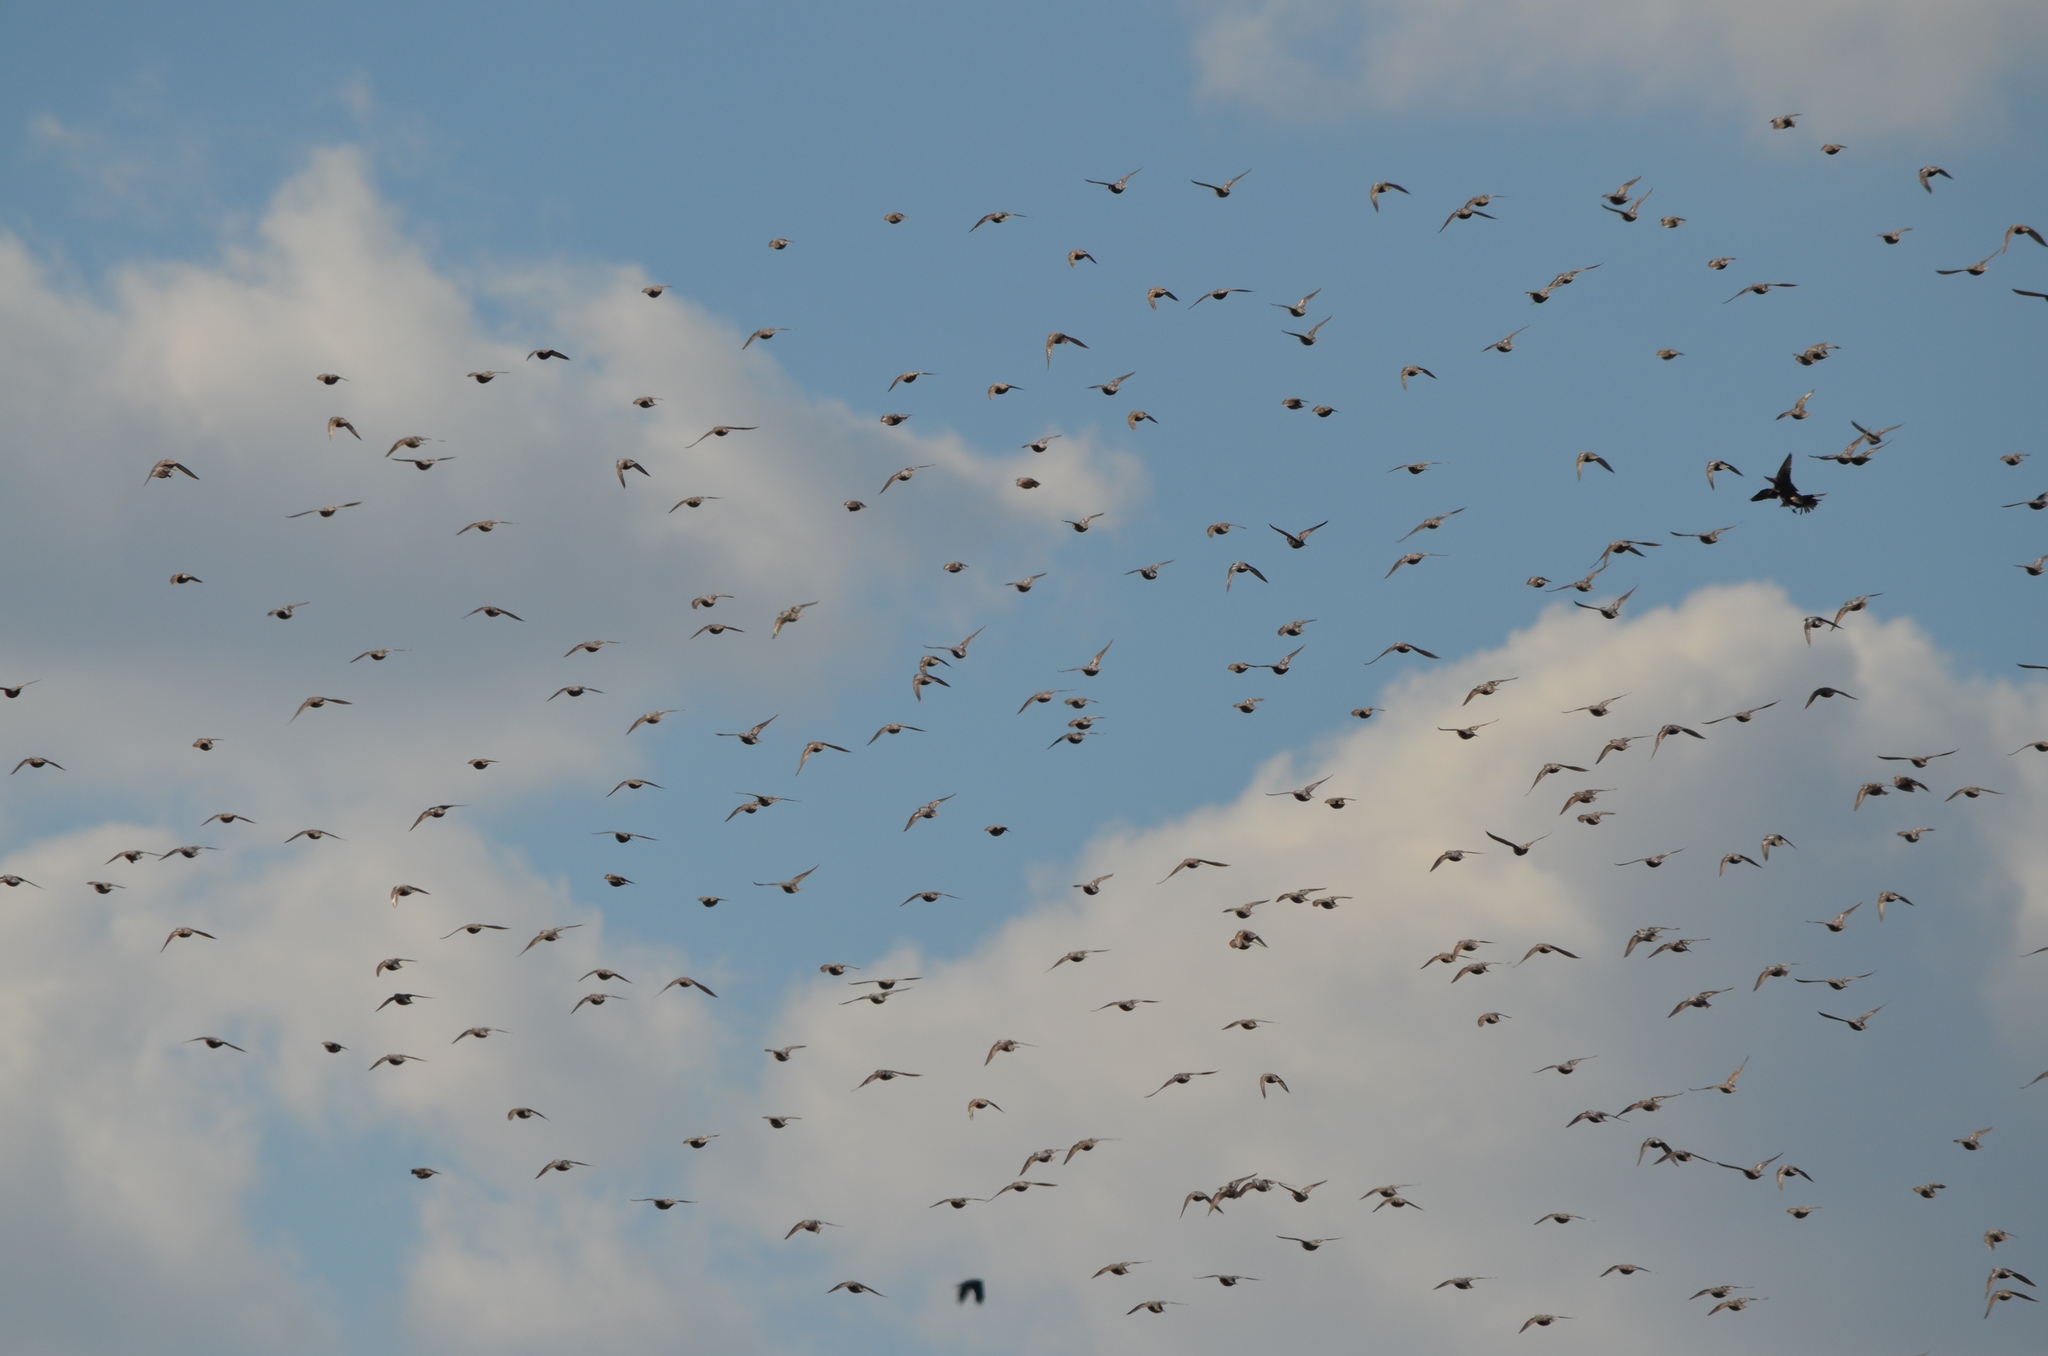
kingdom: Animalia
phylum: Chordata
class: Aves
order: Passeriformes
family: Sturnidae
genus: Sturnus
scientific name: Sturnus vulgaris
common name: Common starling
